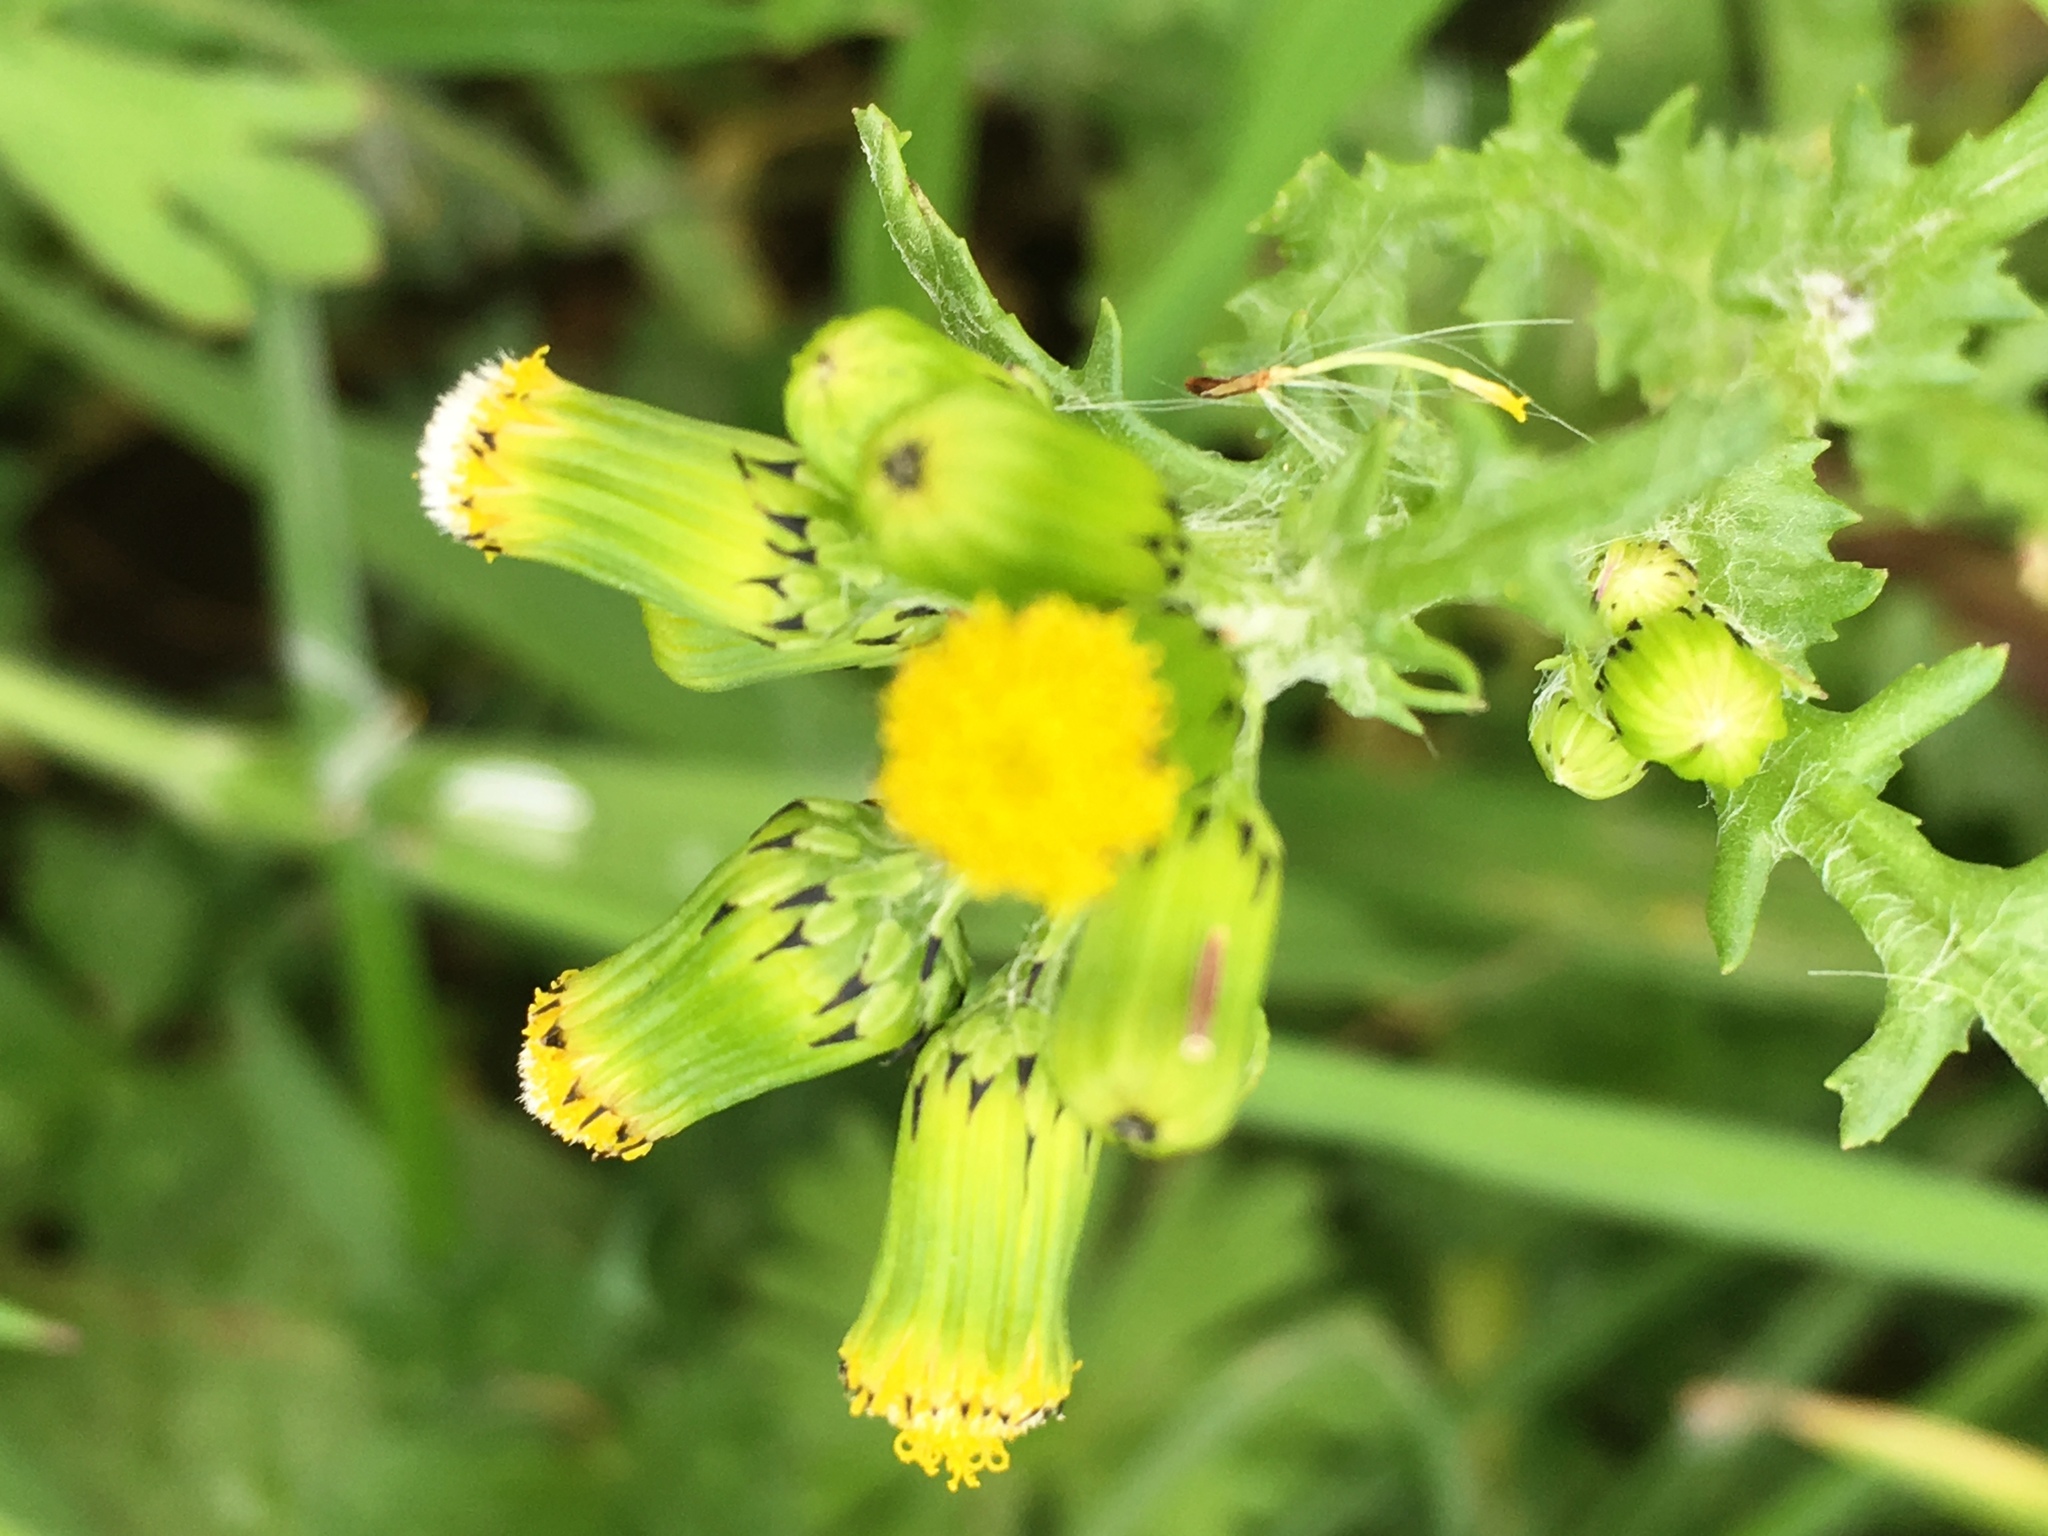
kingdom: Plantae
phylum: Tracheophyta
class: Magnoliopsida
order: Asterales
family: Asteraceae
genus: Senecio
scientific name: Senecio vulgaris
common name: Old-man-in-the-spring
